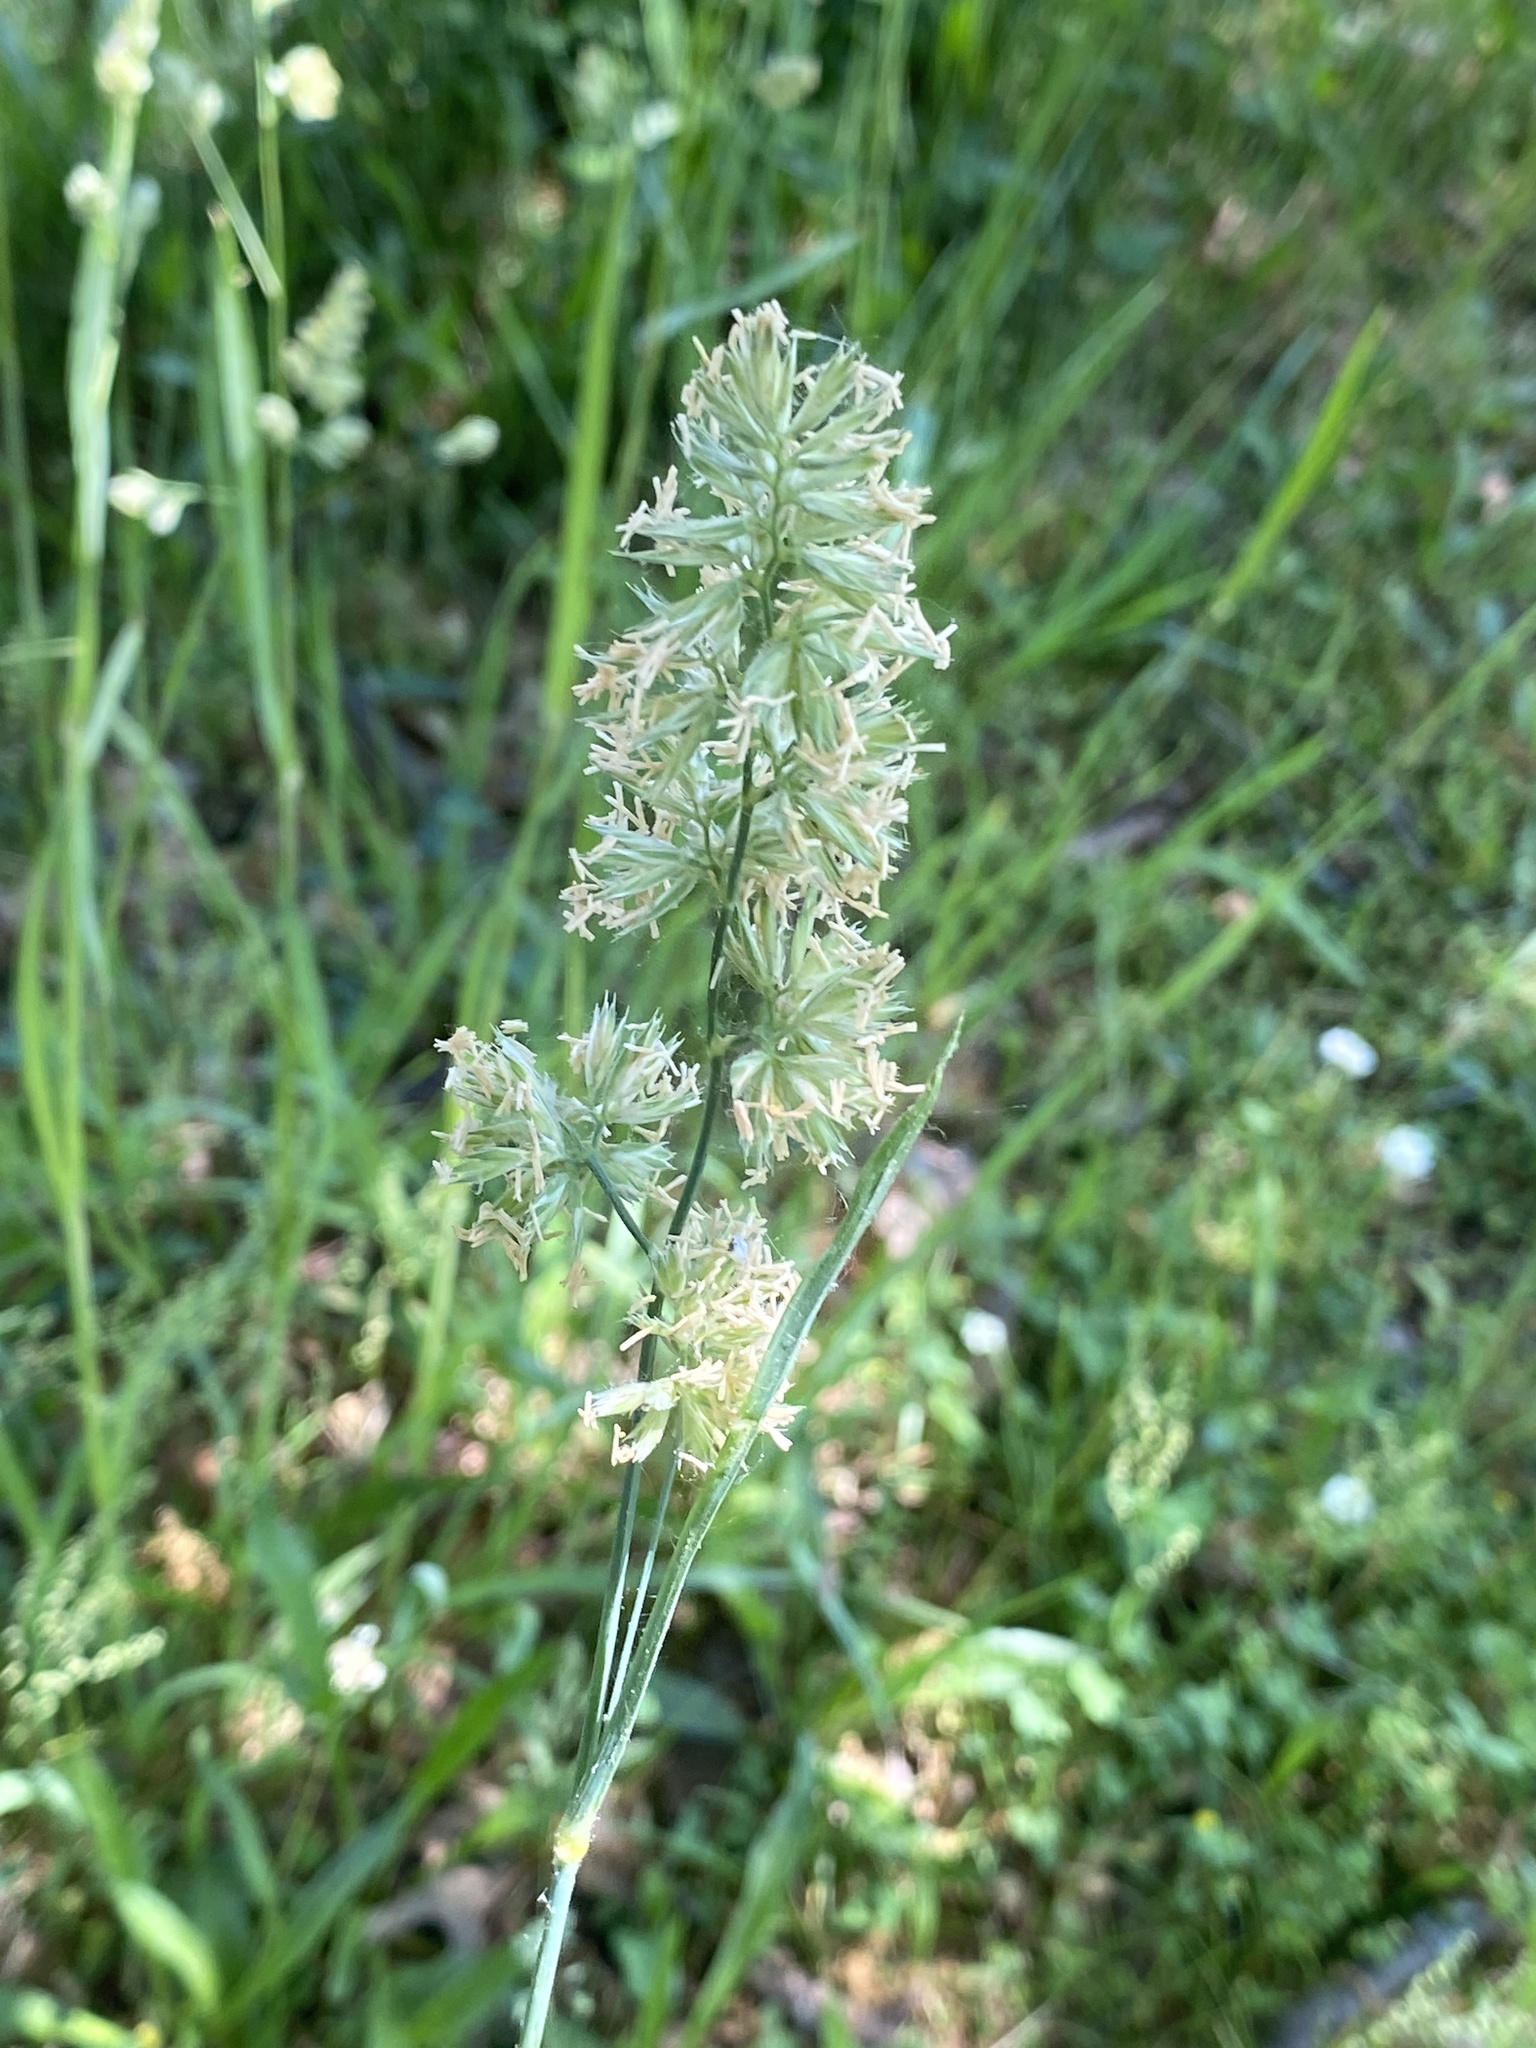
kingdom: Plantae
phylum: Tracheophyta
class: Liliopsida
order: Poales
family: Poaceae
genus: Dactylis
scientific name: Dactylis glomerata
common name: Orchardgrass
